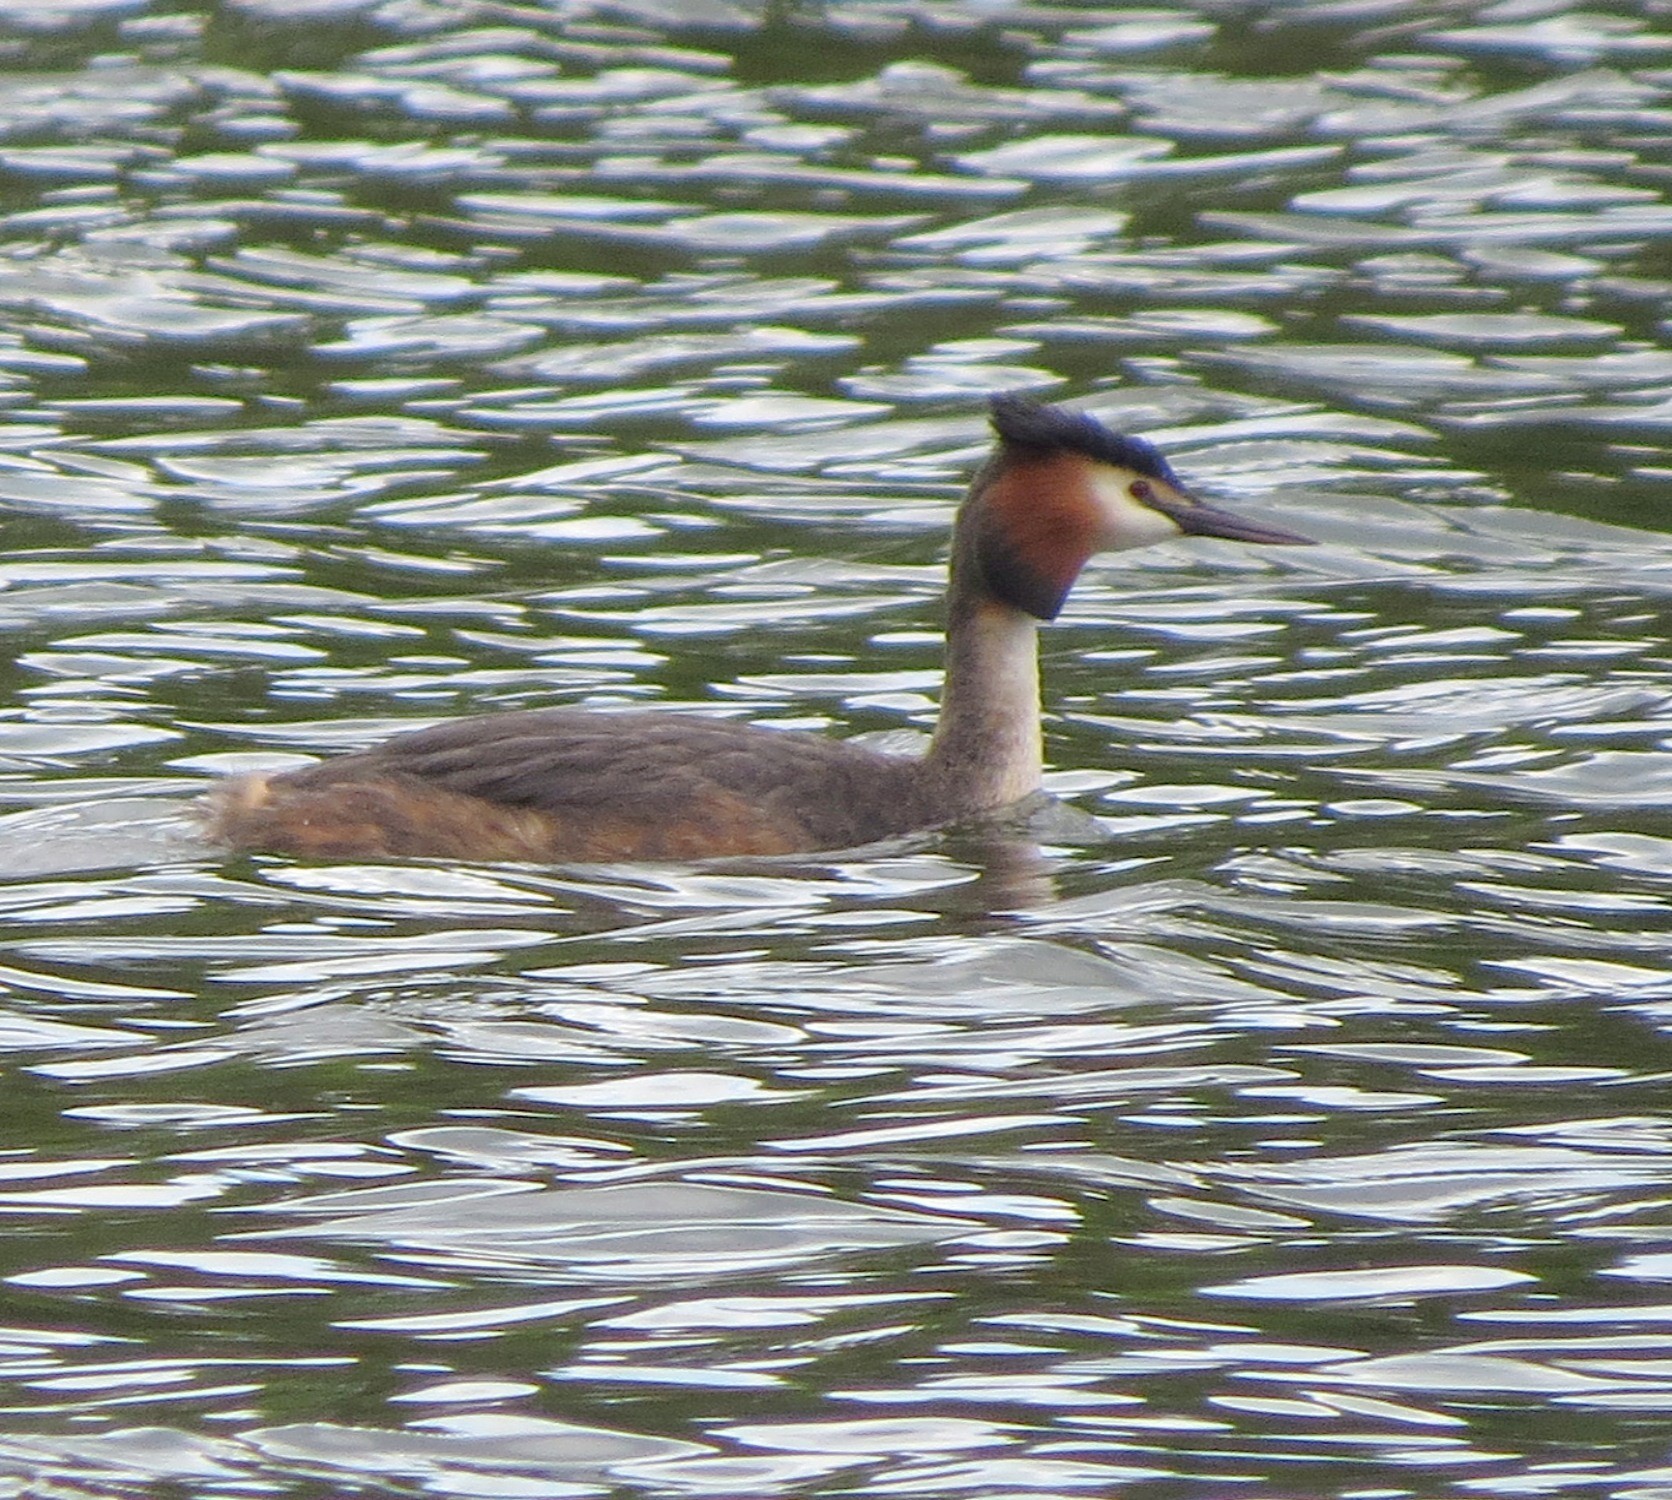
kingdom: Animalia
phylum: Chordata
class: Aves
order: Podicipediformes
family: Podicipedidae
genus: Podiceps
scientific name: Podiceps cristatus
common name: Great crested grebe
